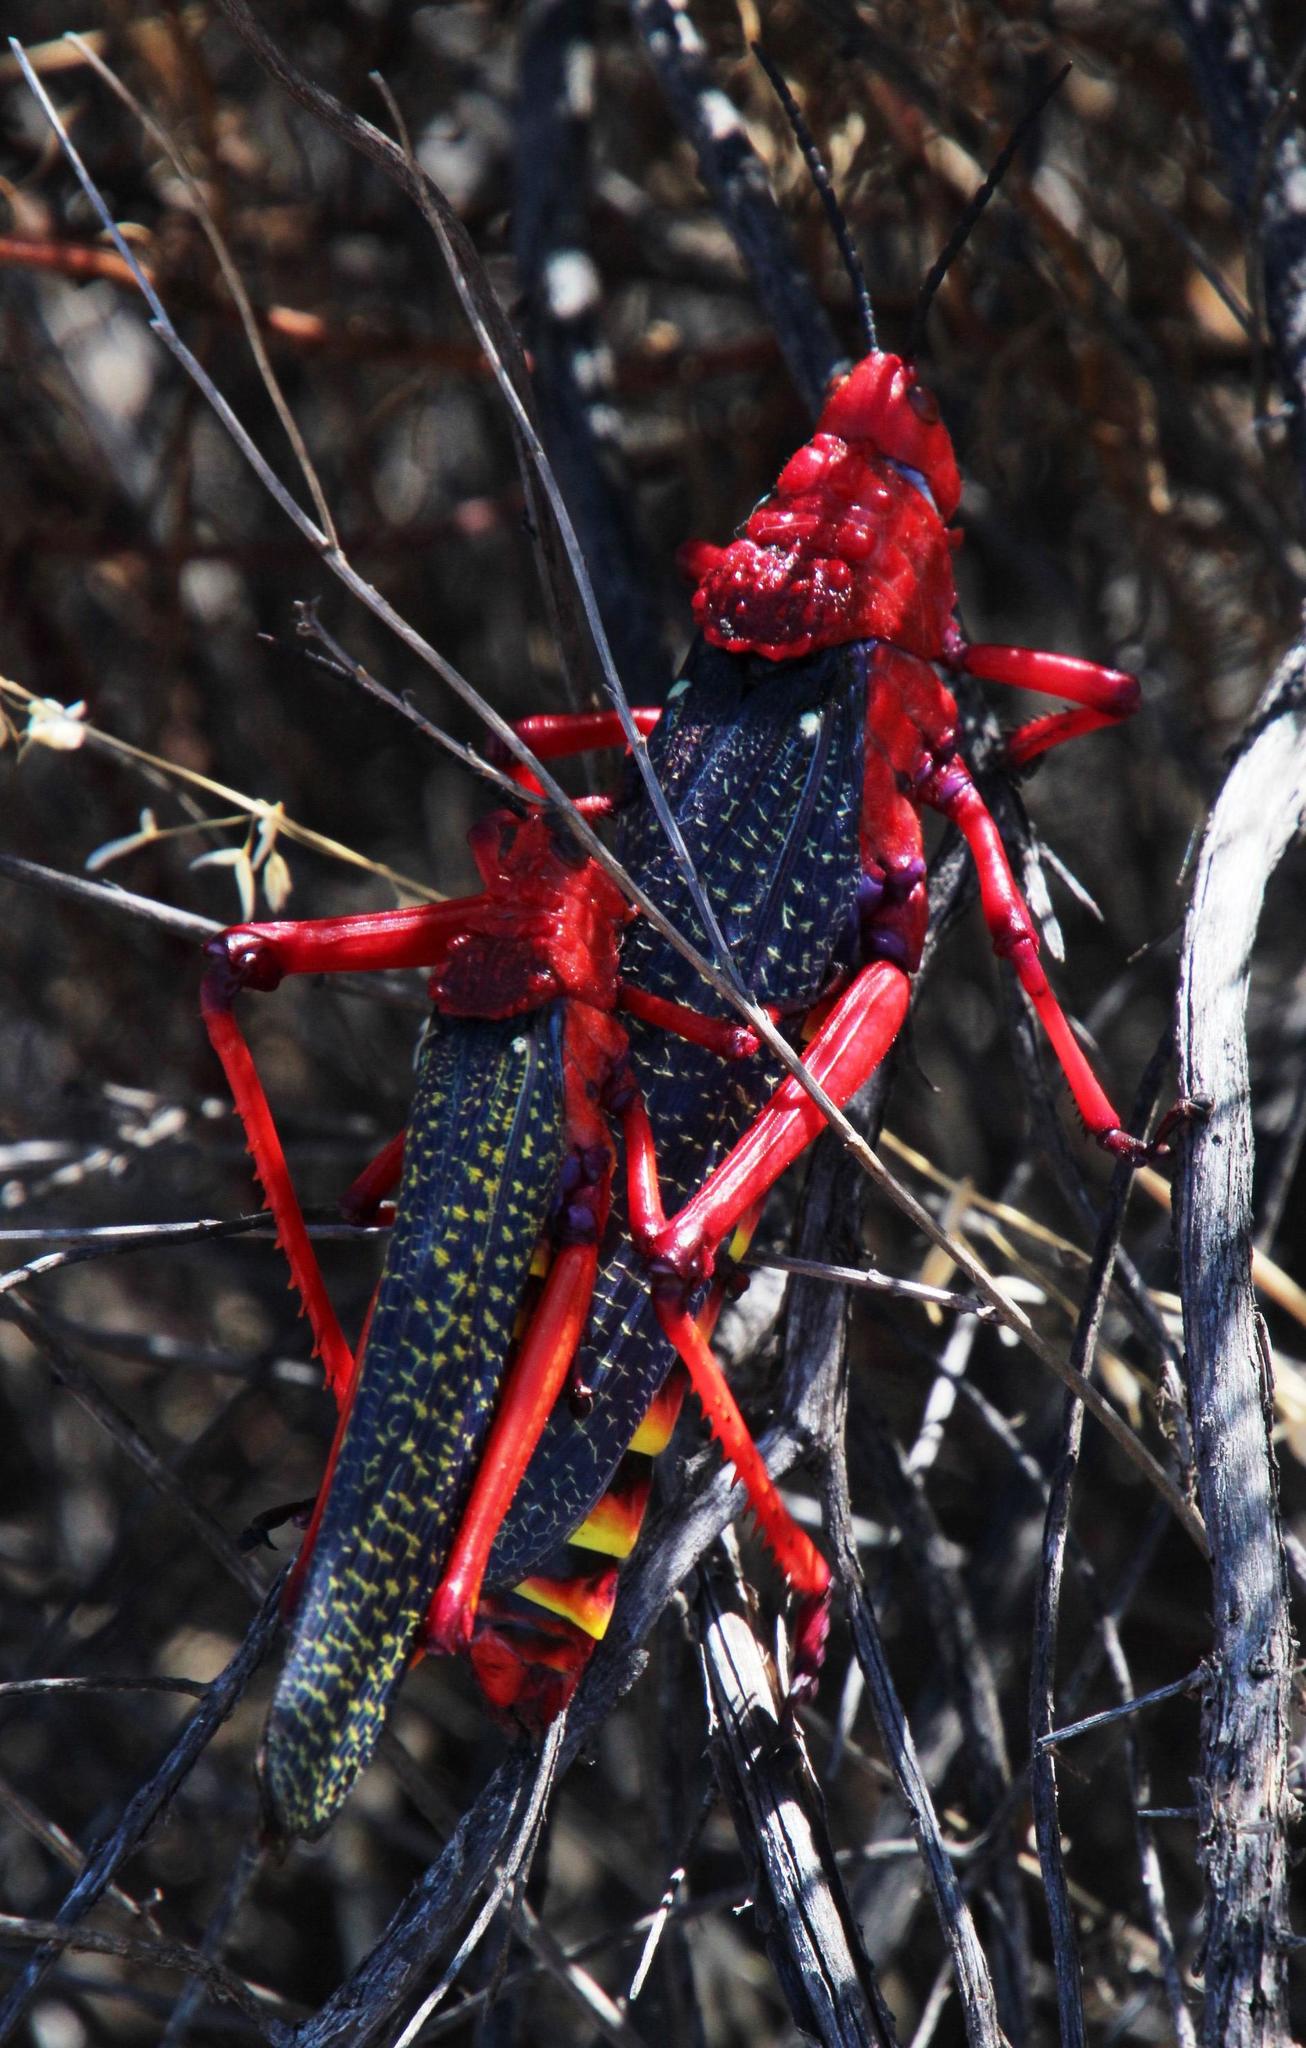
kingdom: Animalia
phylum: Arthropoda
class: Insecta
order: Orthoptera
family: Pyrgomorphidae
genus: Phymateus
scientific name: Phymateus morbillosus
